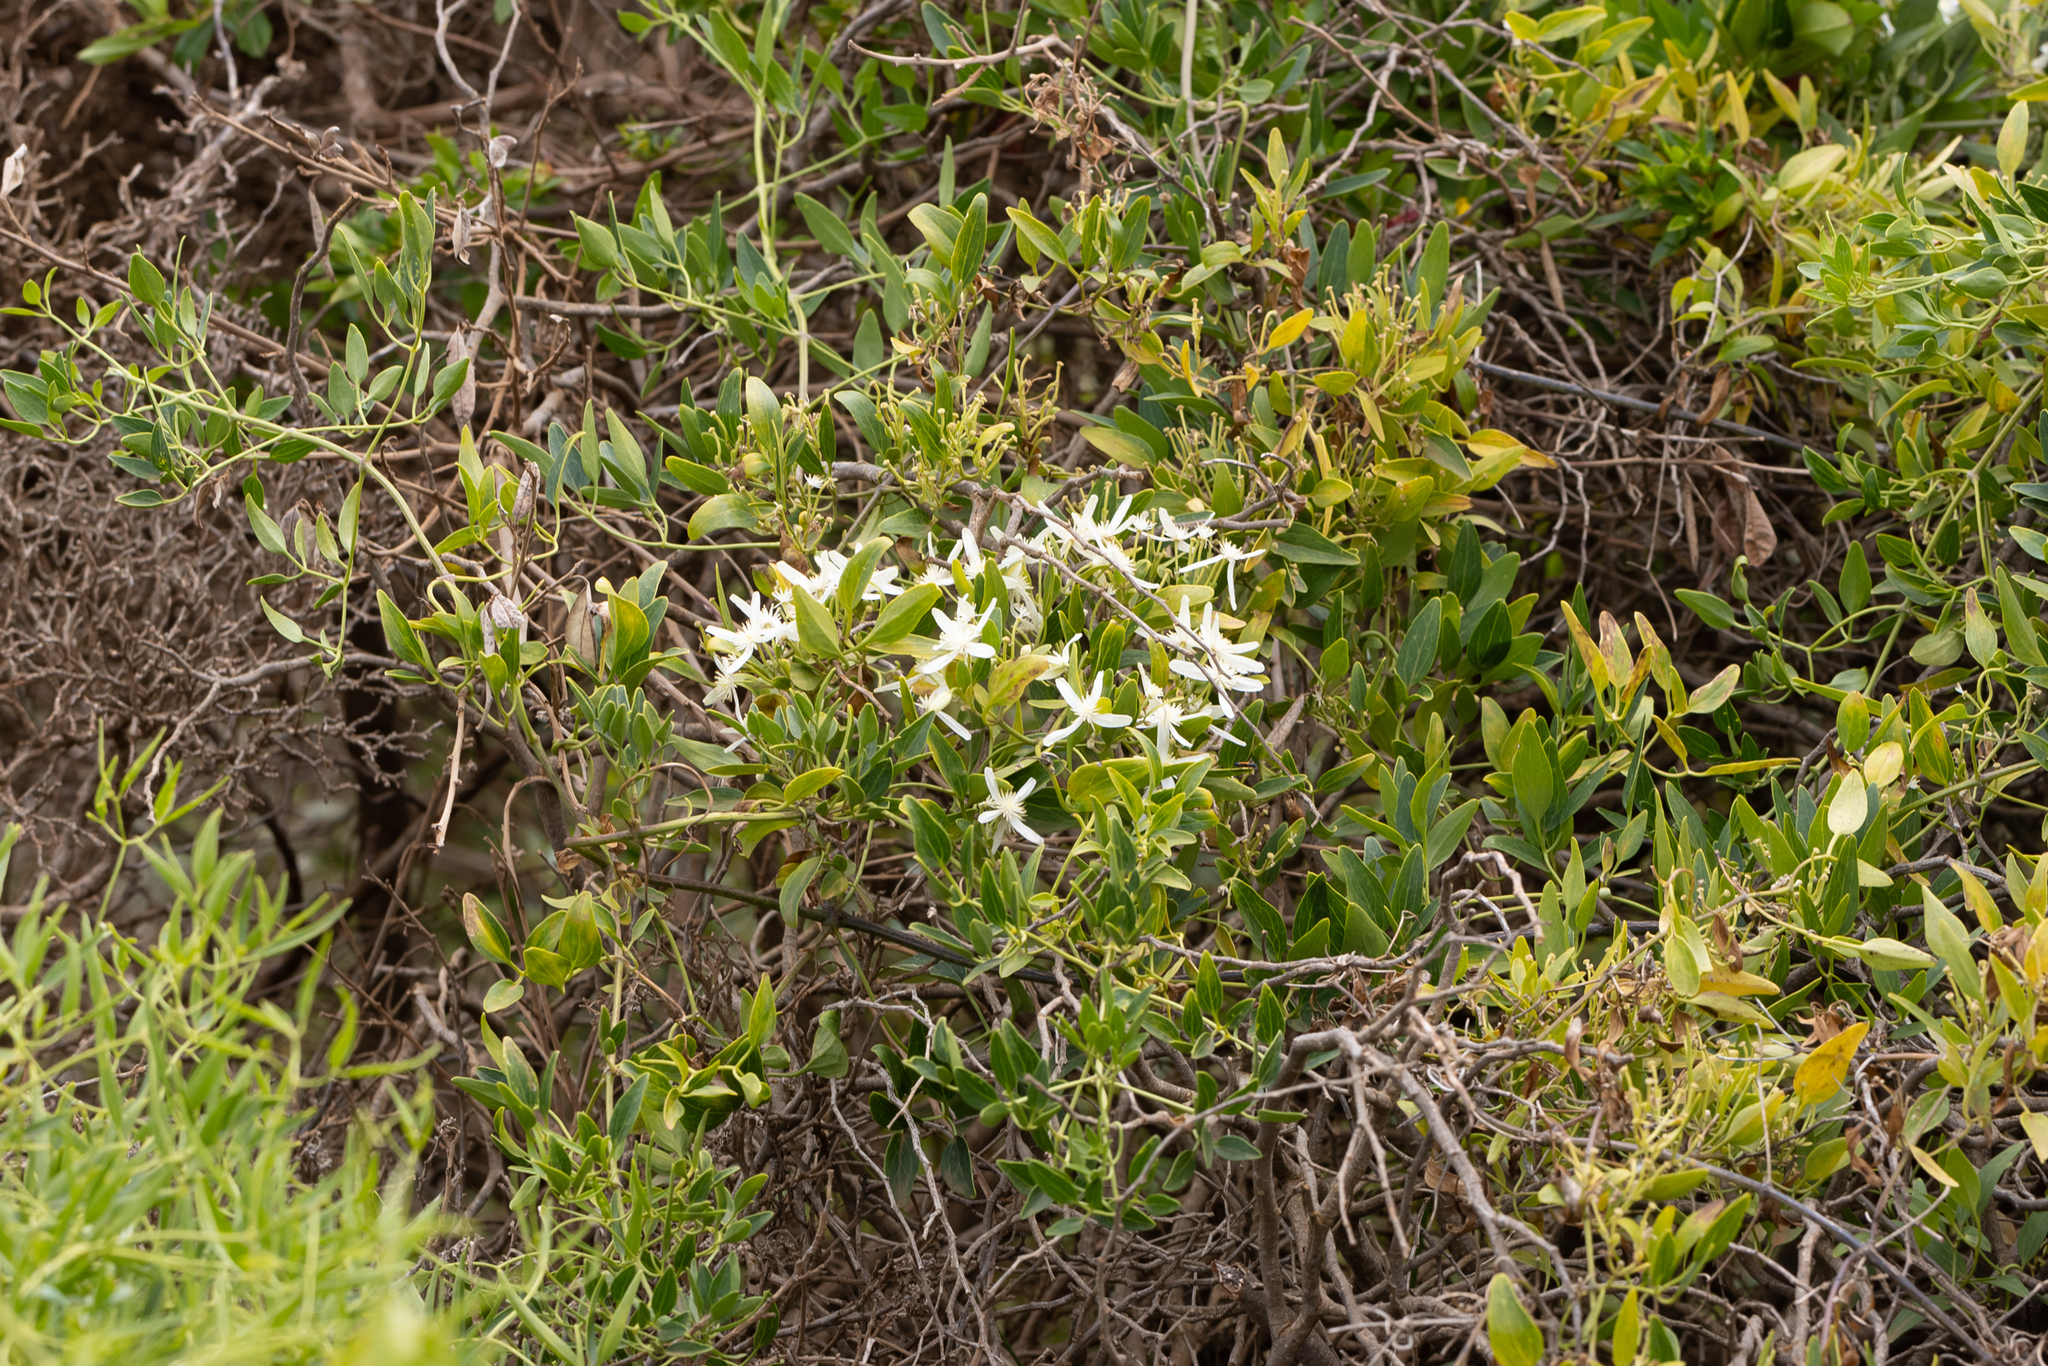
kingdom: Plantae
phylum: Tracheophyta
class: Magnoliopsida
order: Ranunculales
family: Ranunculaceae
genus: Clematis
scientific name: Clematis linearifolia
